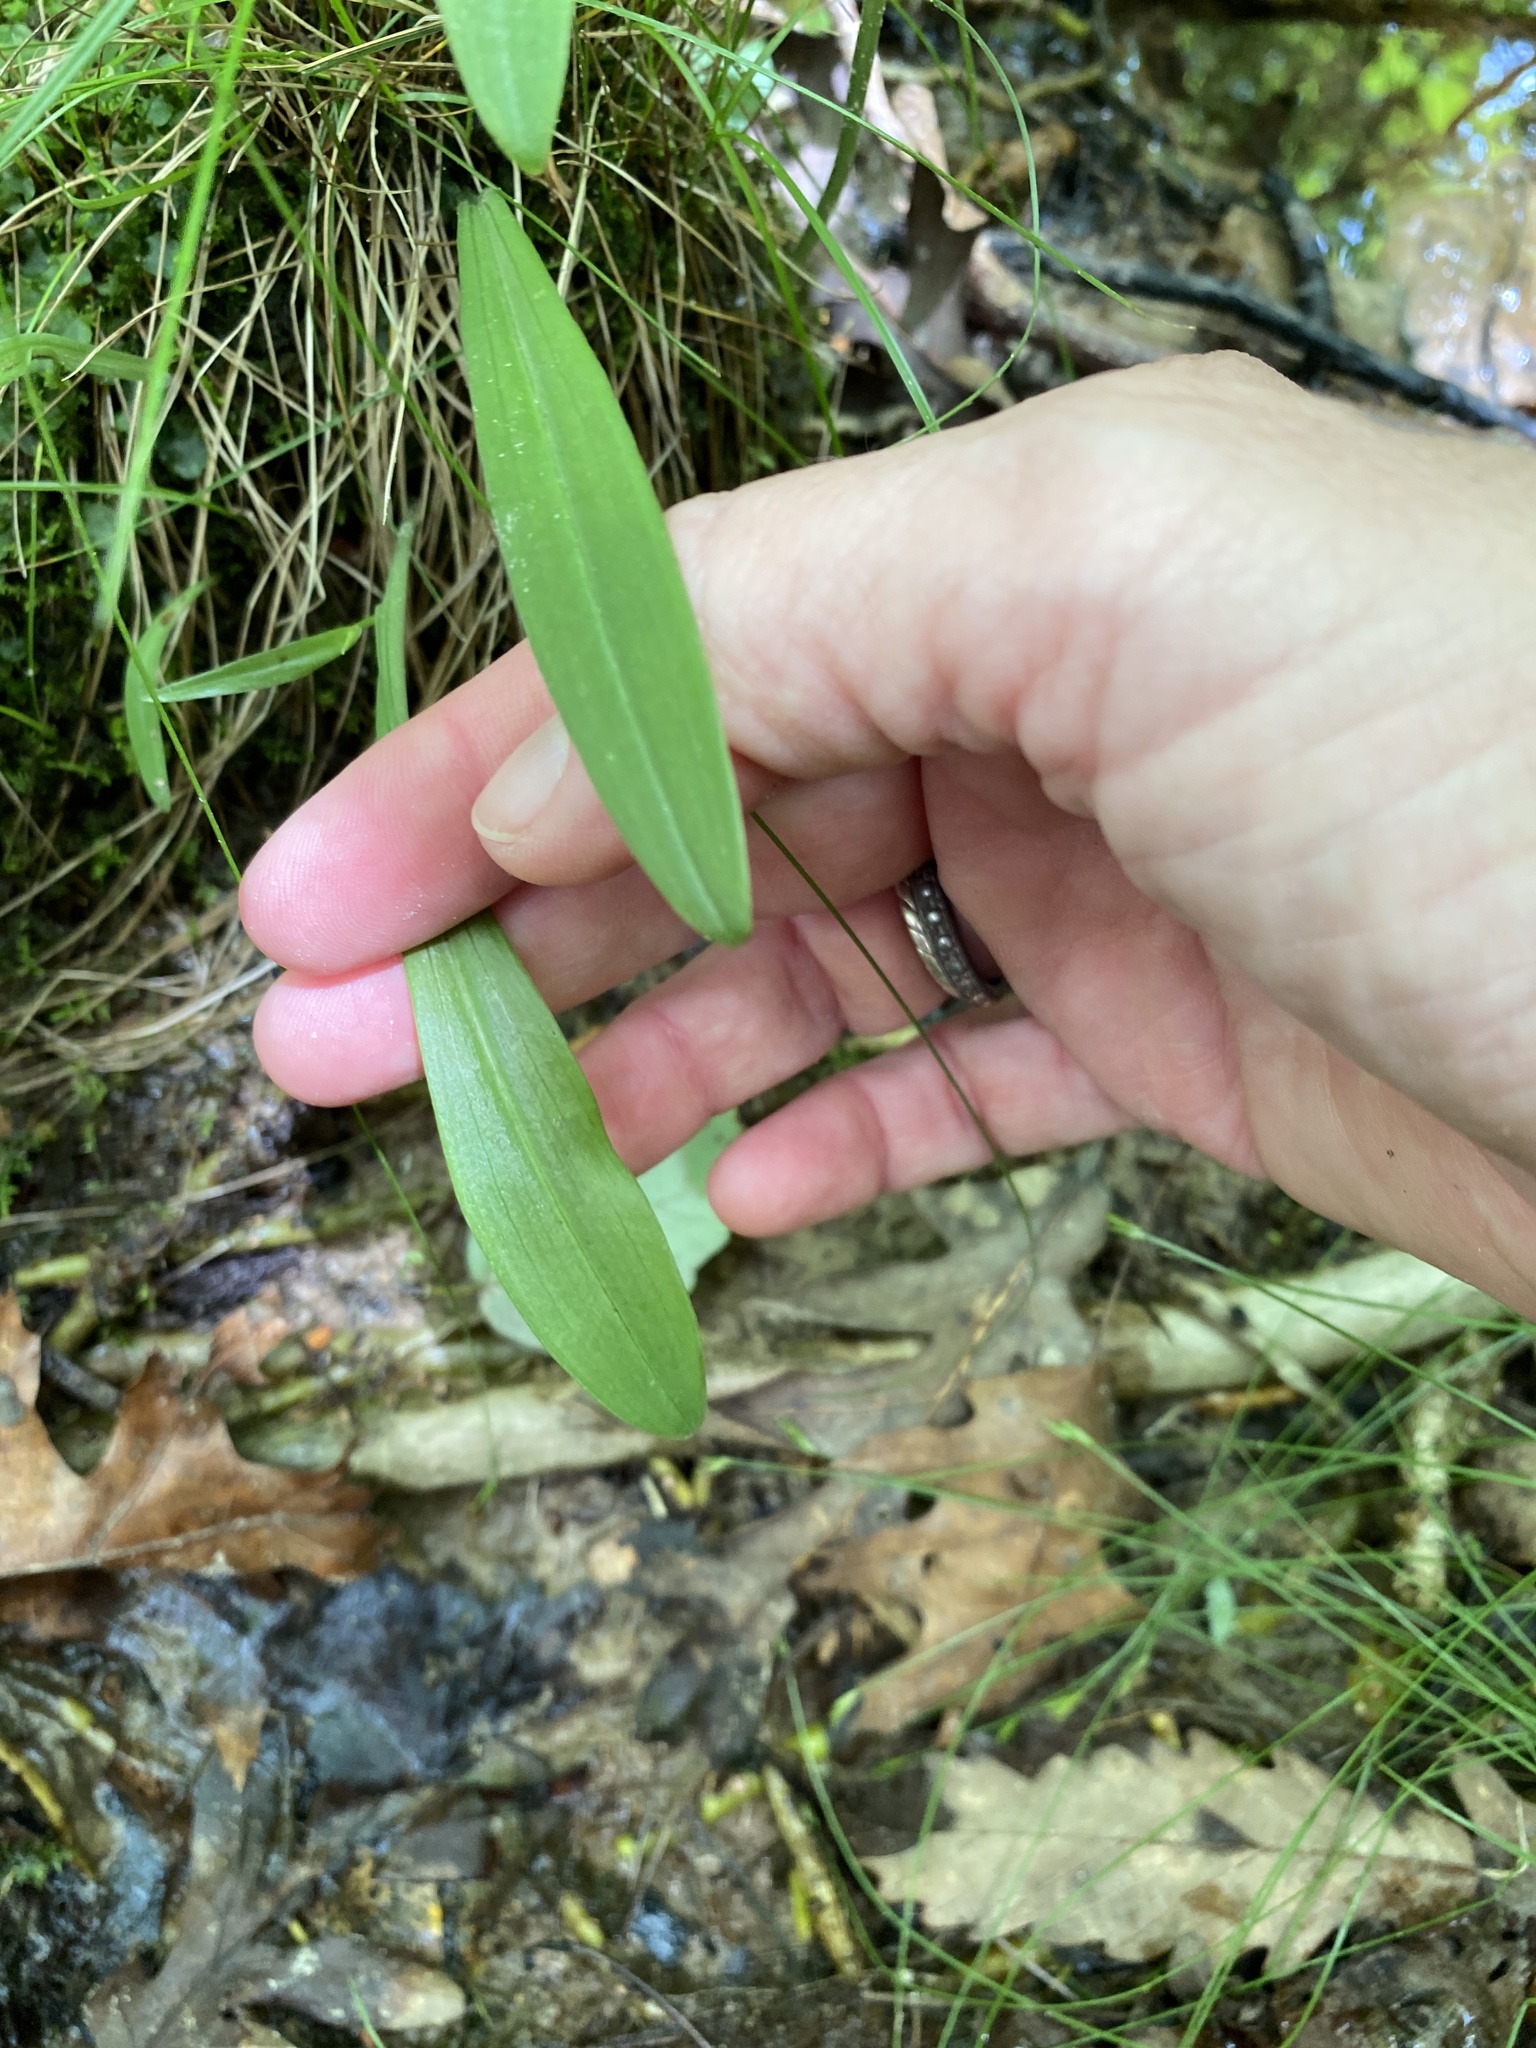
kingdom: Plantae
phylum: Tracheophyta
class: Liliopsida
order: Asparagales
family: Orchidaceae
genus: Platanthera
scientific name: Platanthera clavellata
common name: Club-spur orchid
